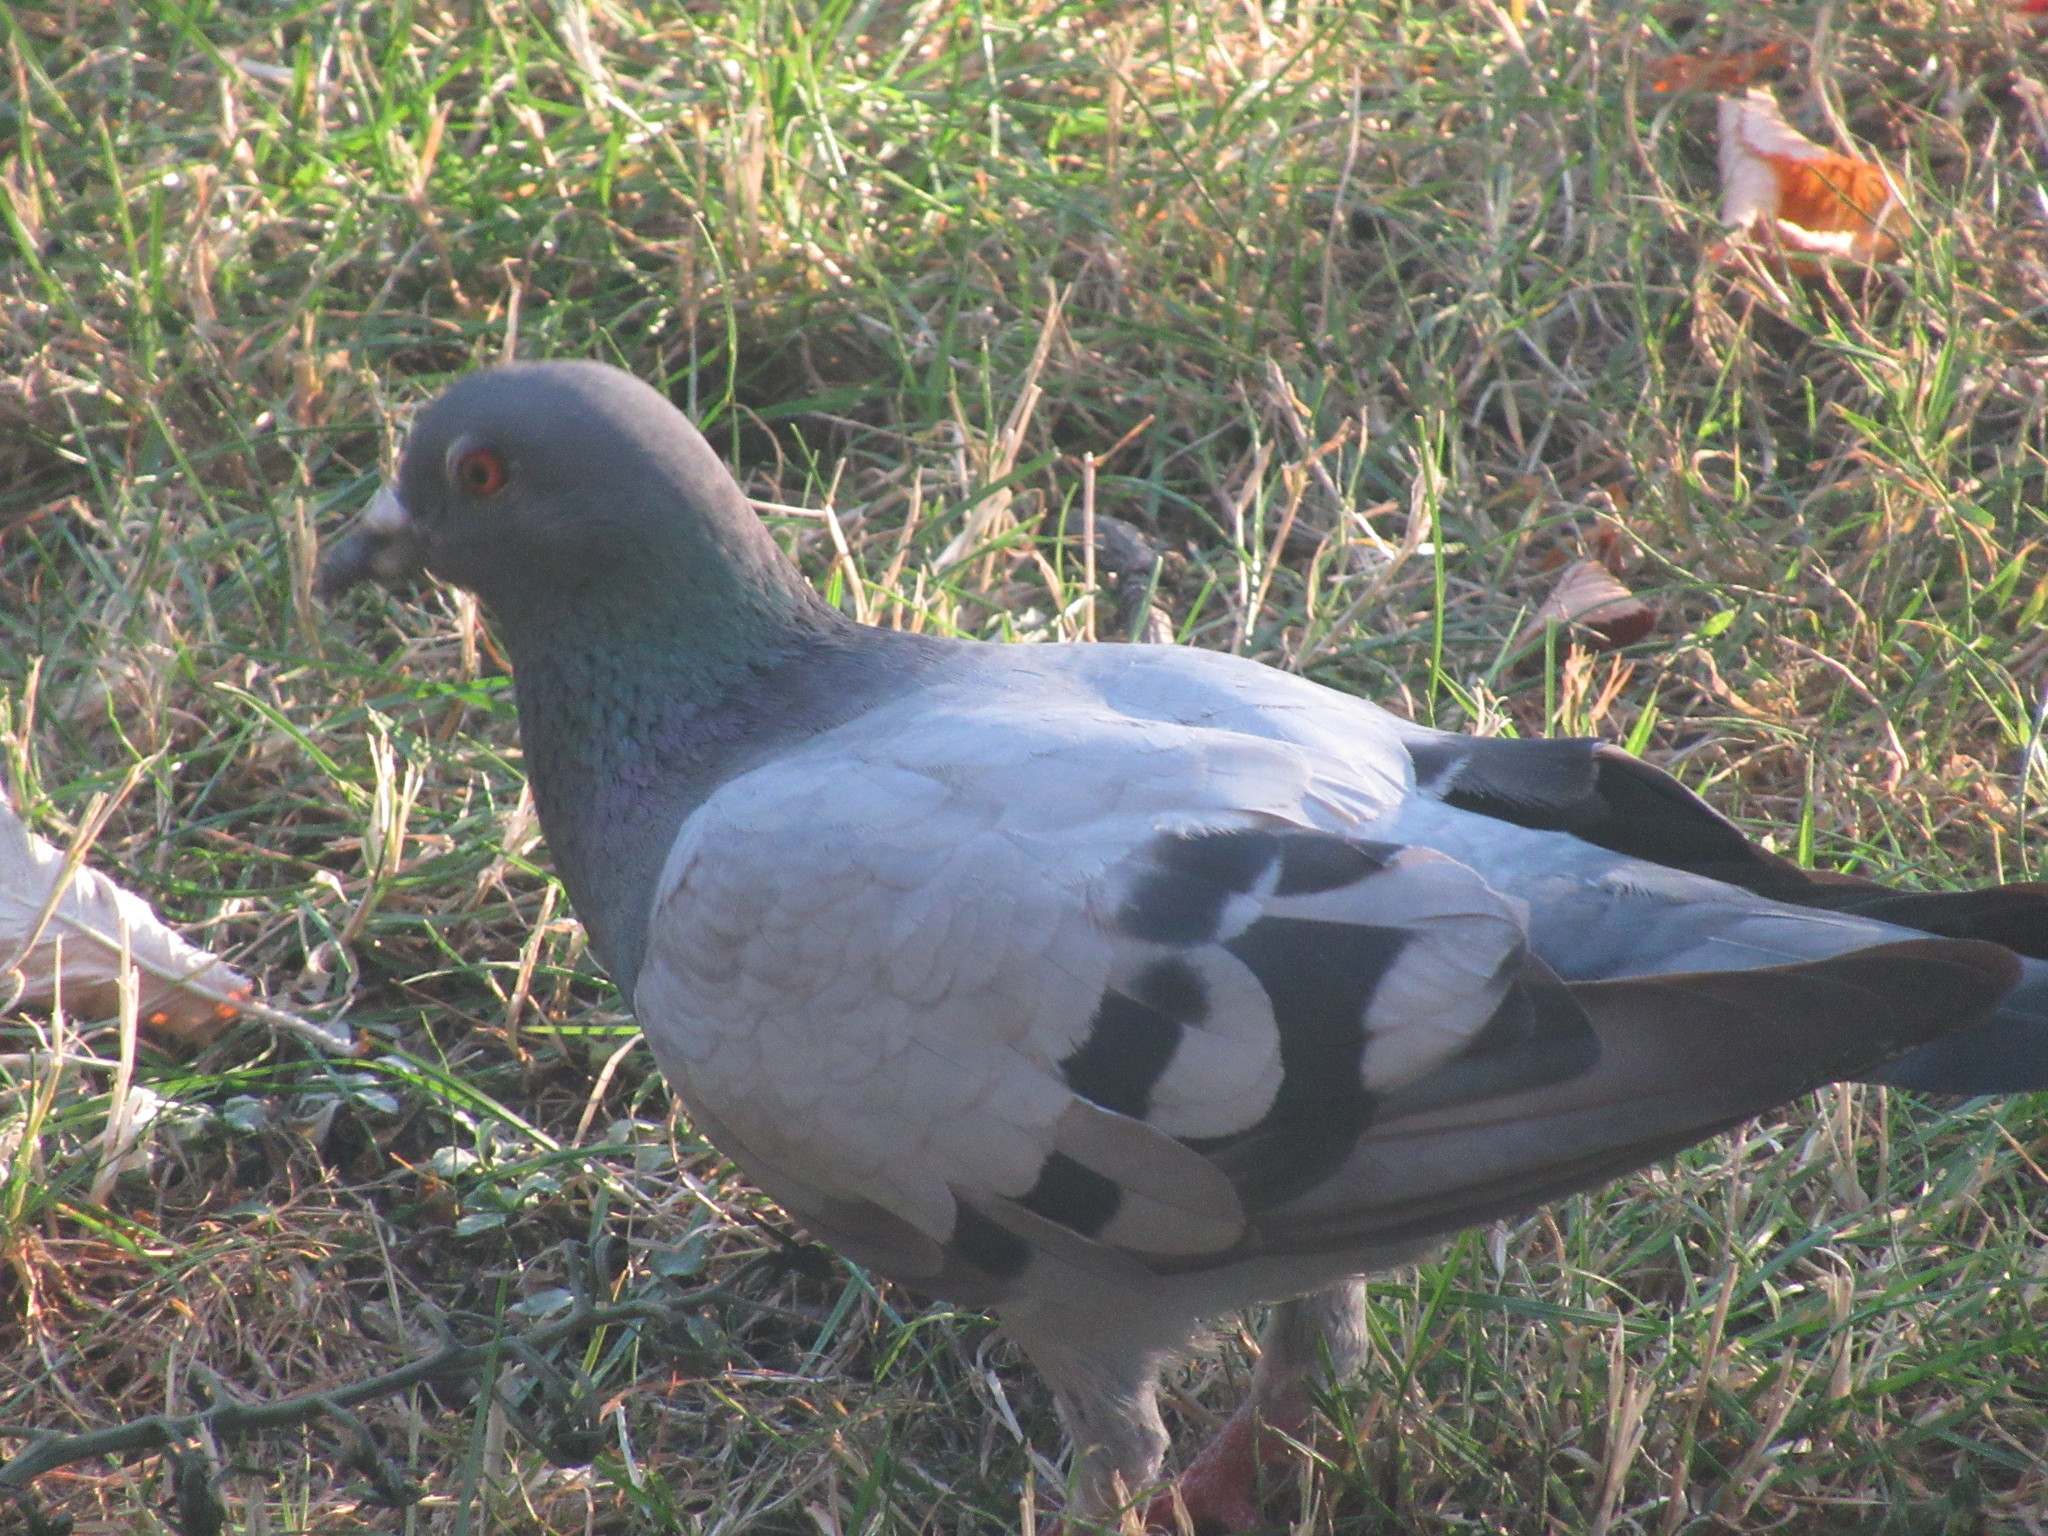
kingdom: Animalia
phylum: Chordata
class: Aves
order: Columbiformes
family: Columbidae
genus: Columba
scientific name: Columba livia
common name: Rock pigeon
